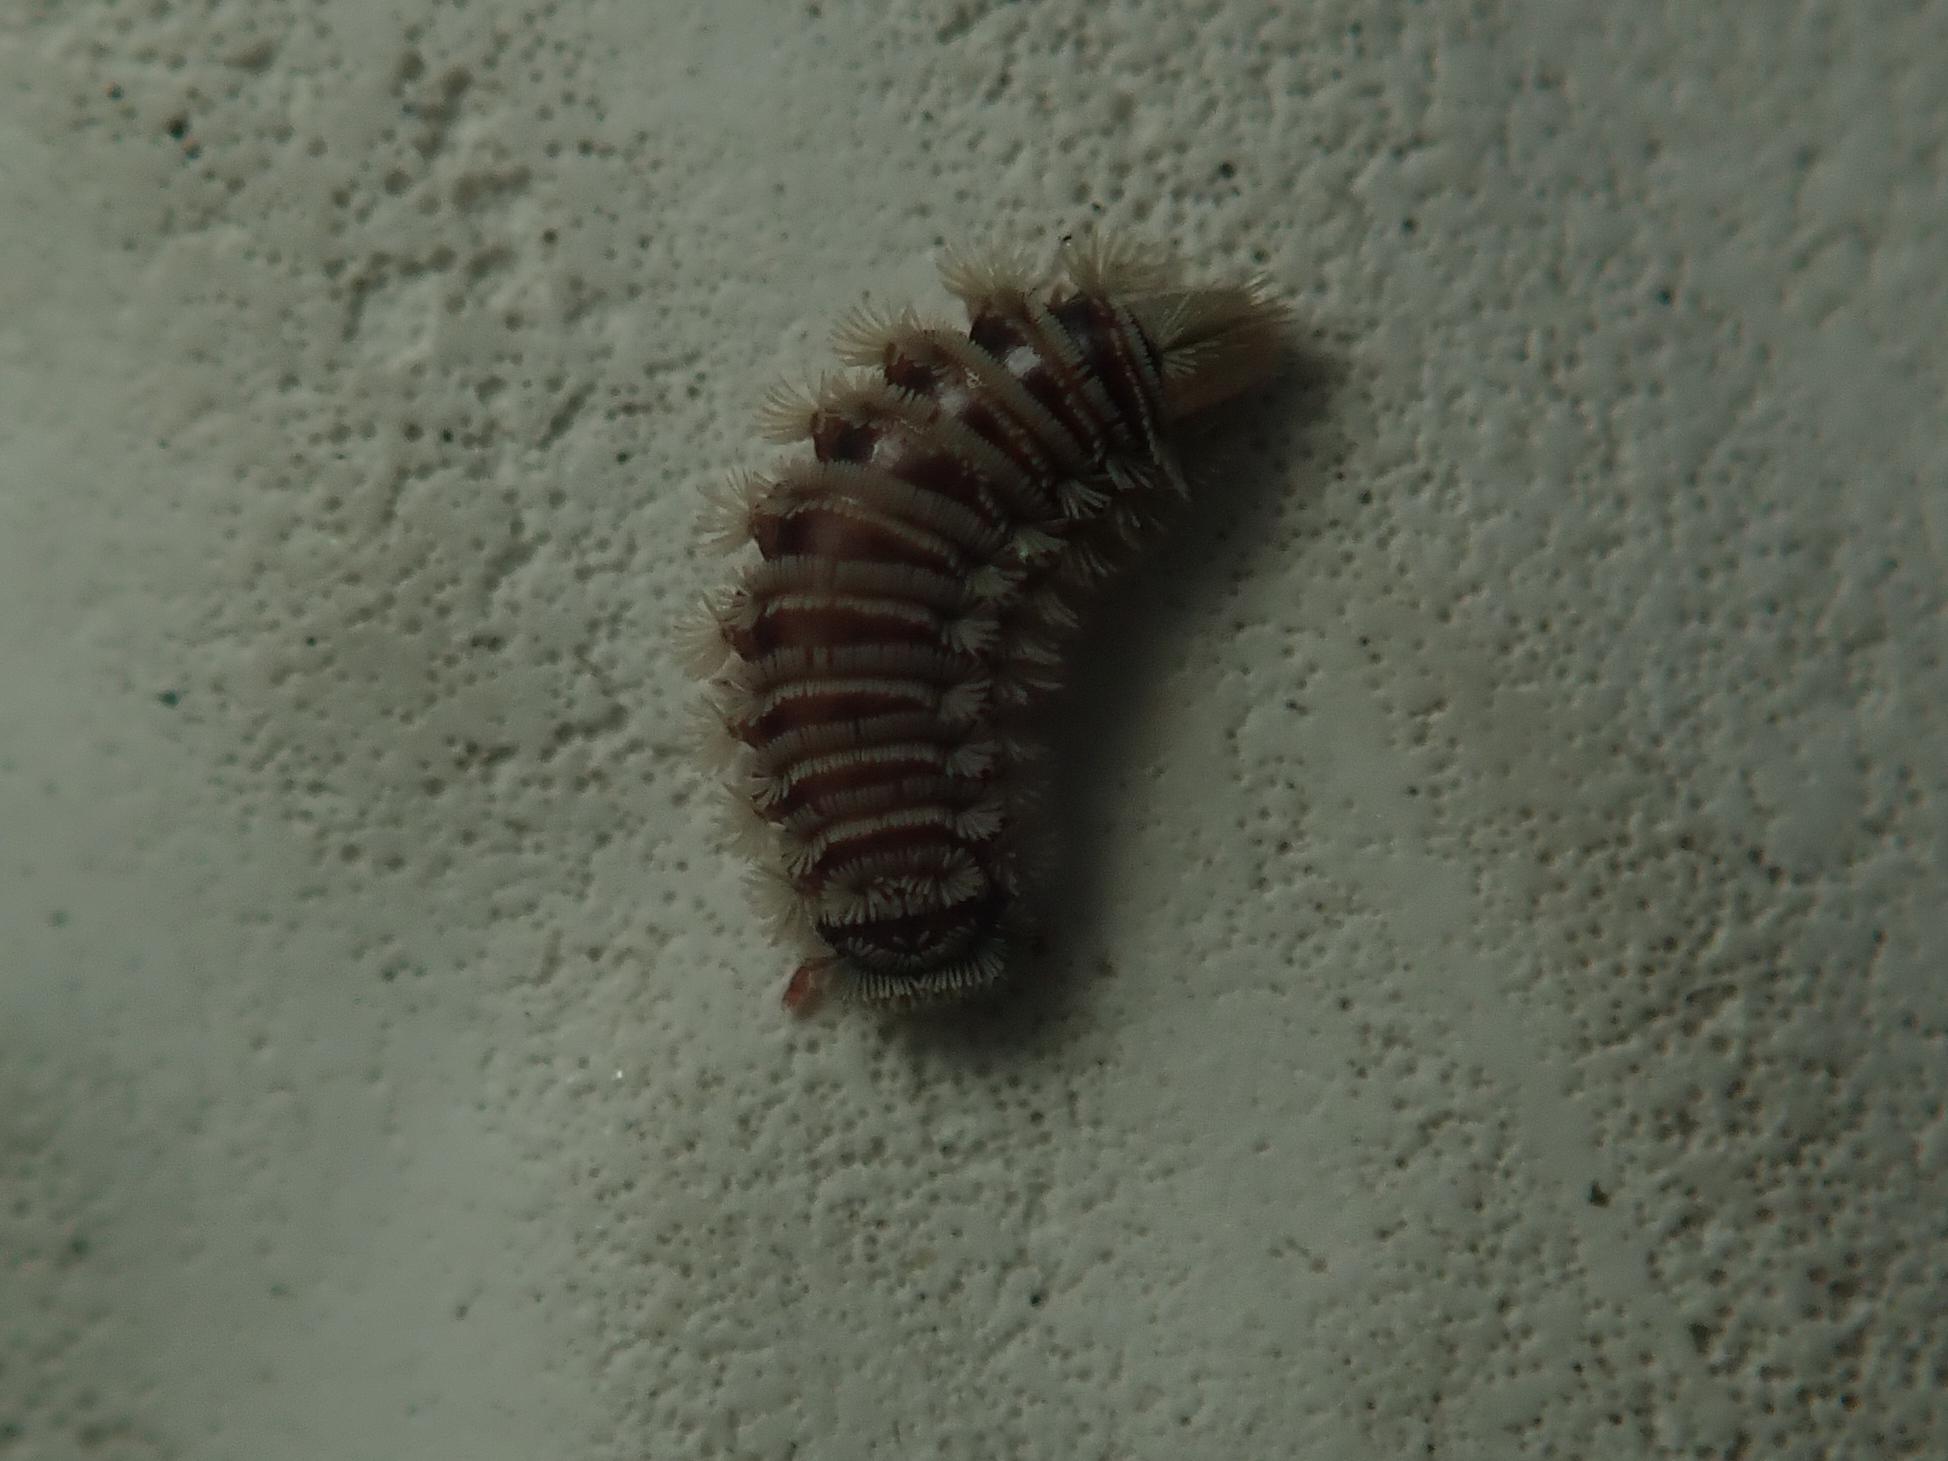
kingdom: Animalia
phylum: Arthropoda
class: Diplopoda
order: Polyxenida
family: Polyxenidae
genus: Polyxenus
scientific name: Polyxenus lagurus
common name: Bristly millipede
